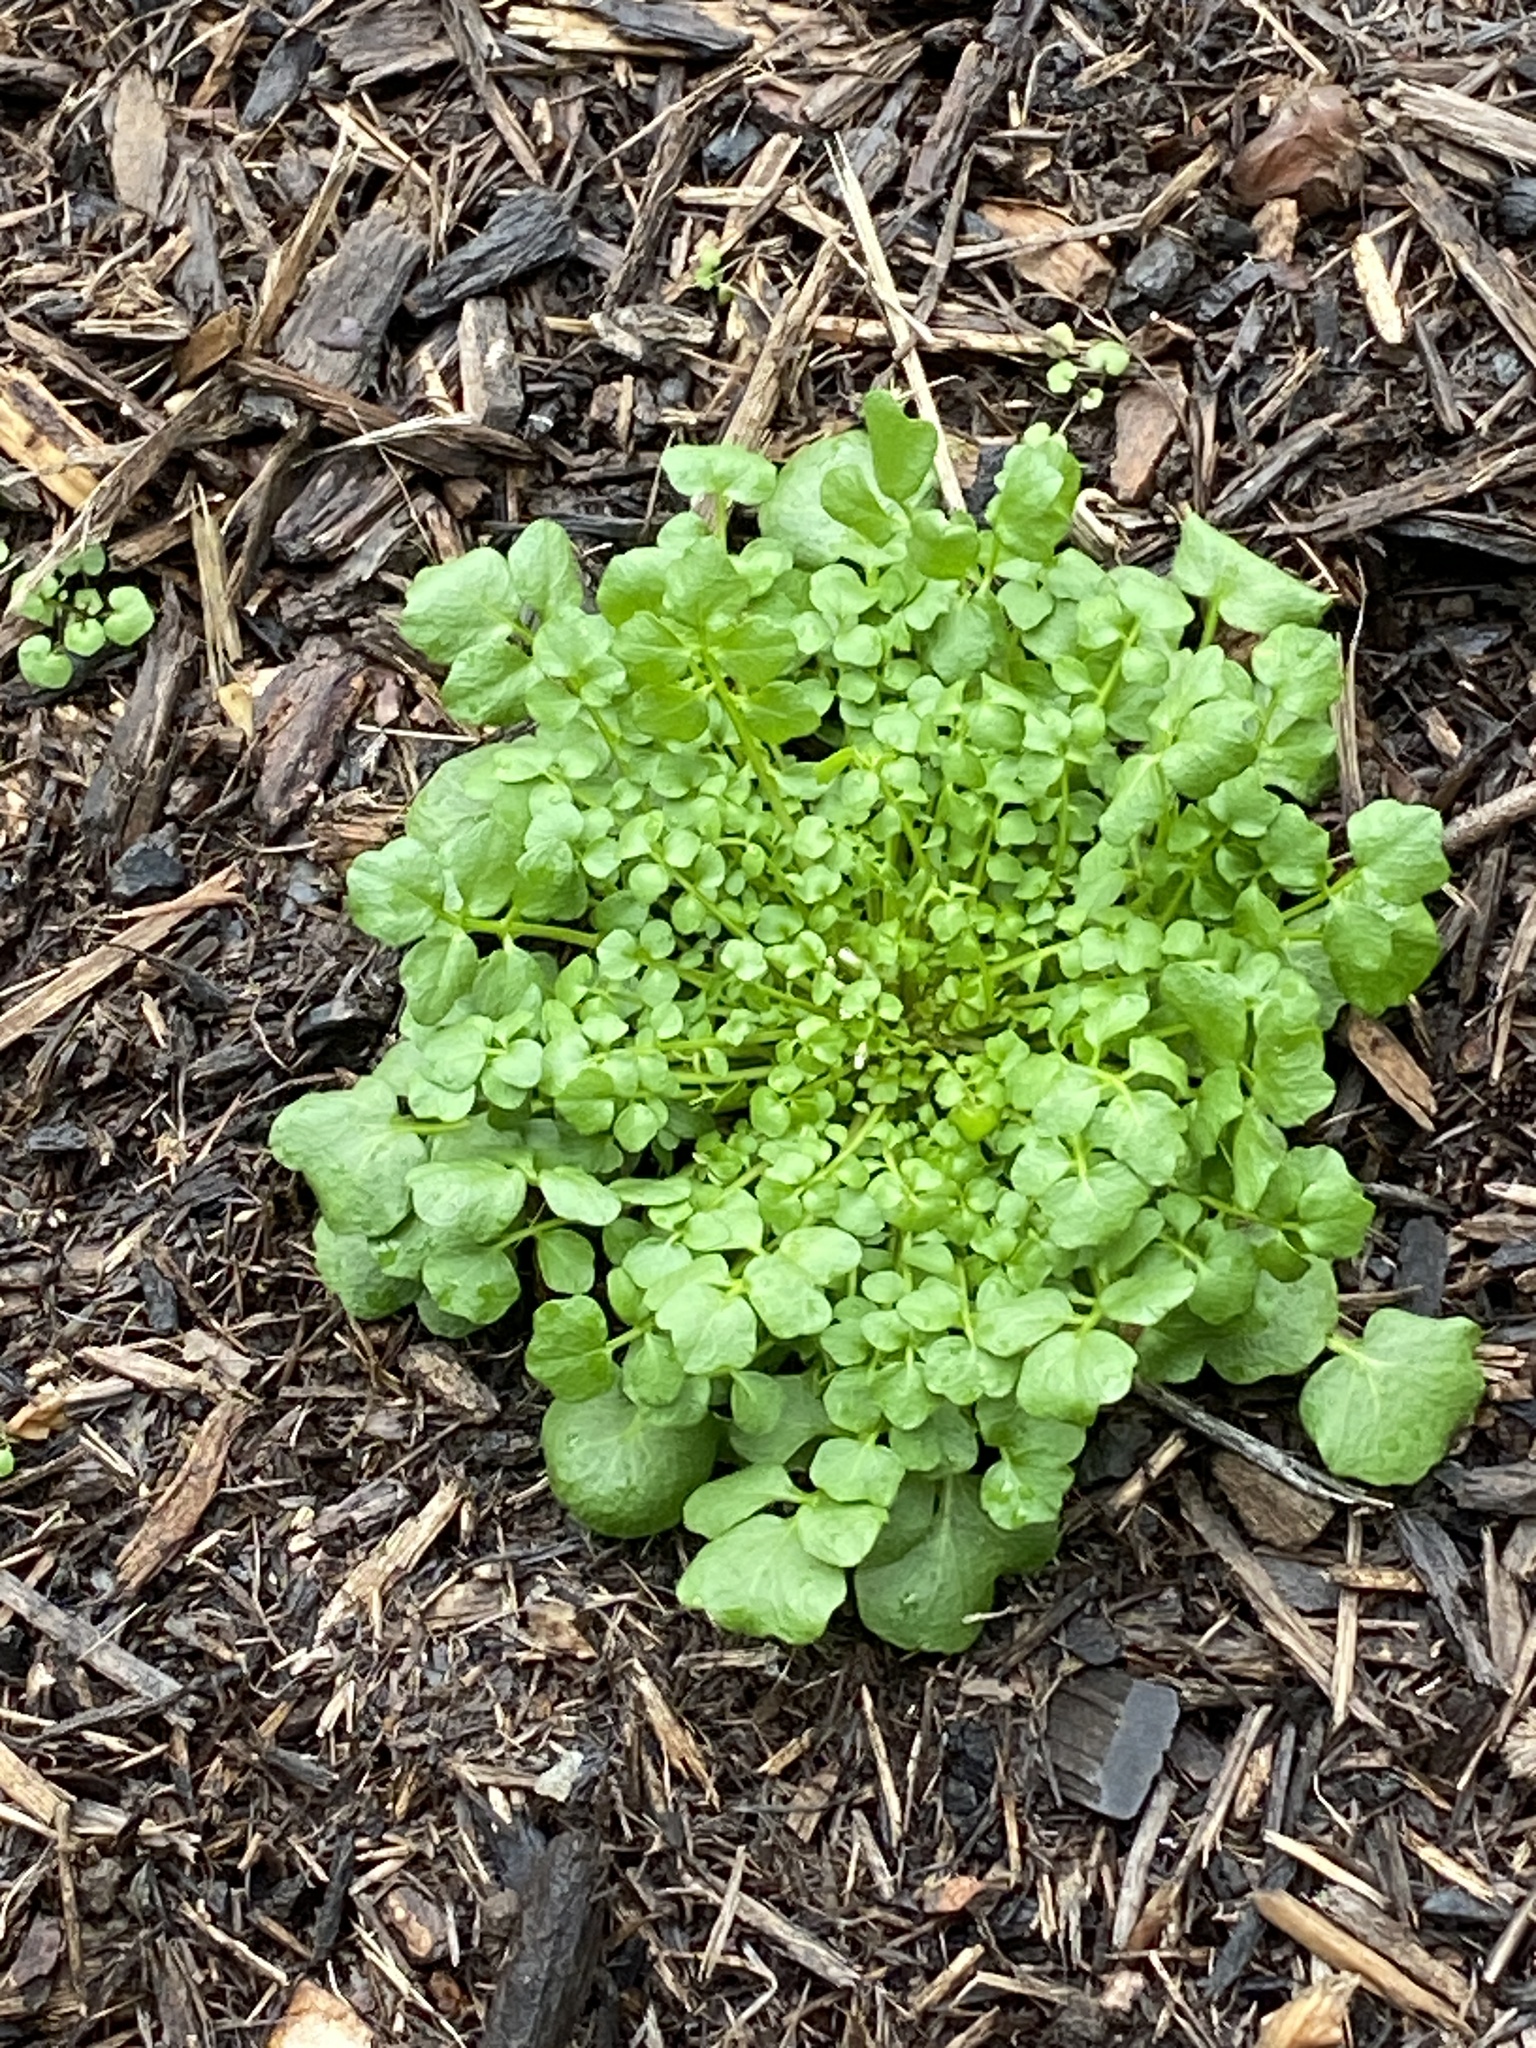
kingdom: Plantae
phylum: Tracheophyta
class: Magnoliopsida
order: Brassicales
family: Brassicaceae
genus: Cardamine
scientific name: Cardamine hirsuta
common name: Hairy bittercress
